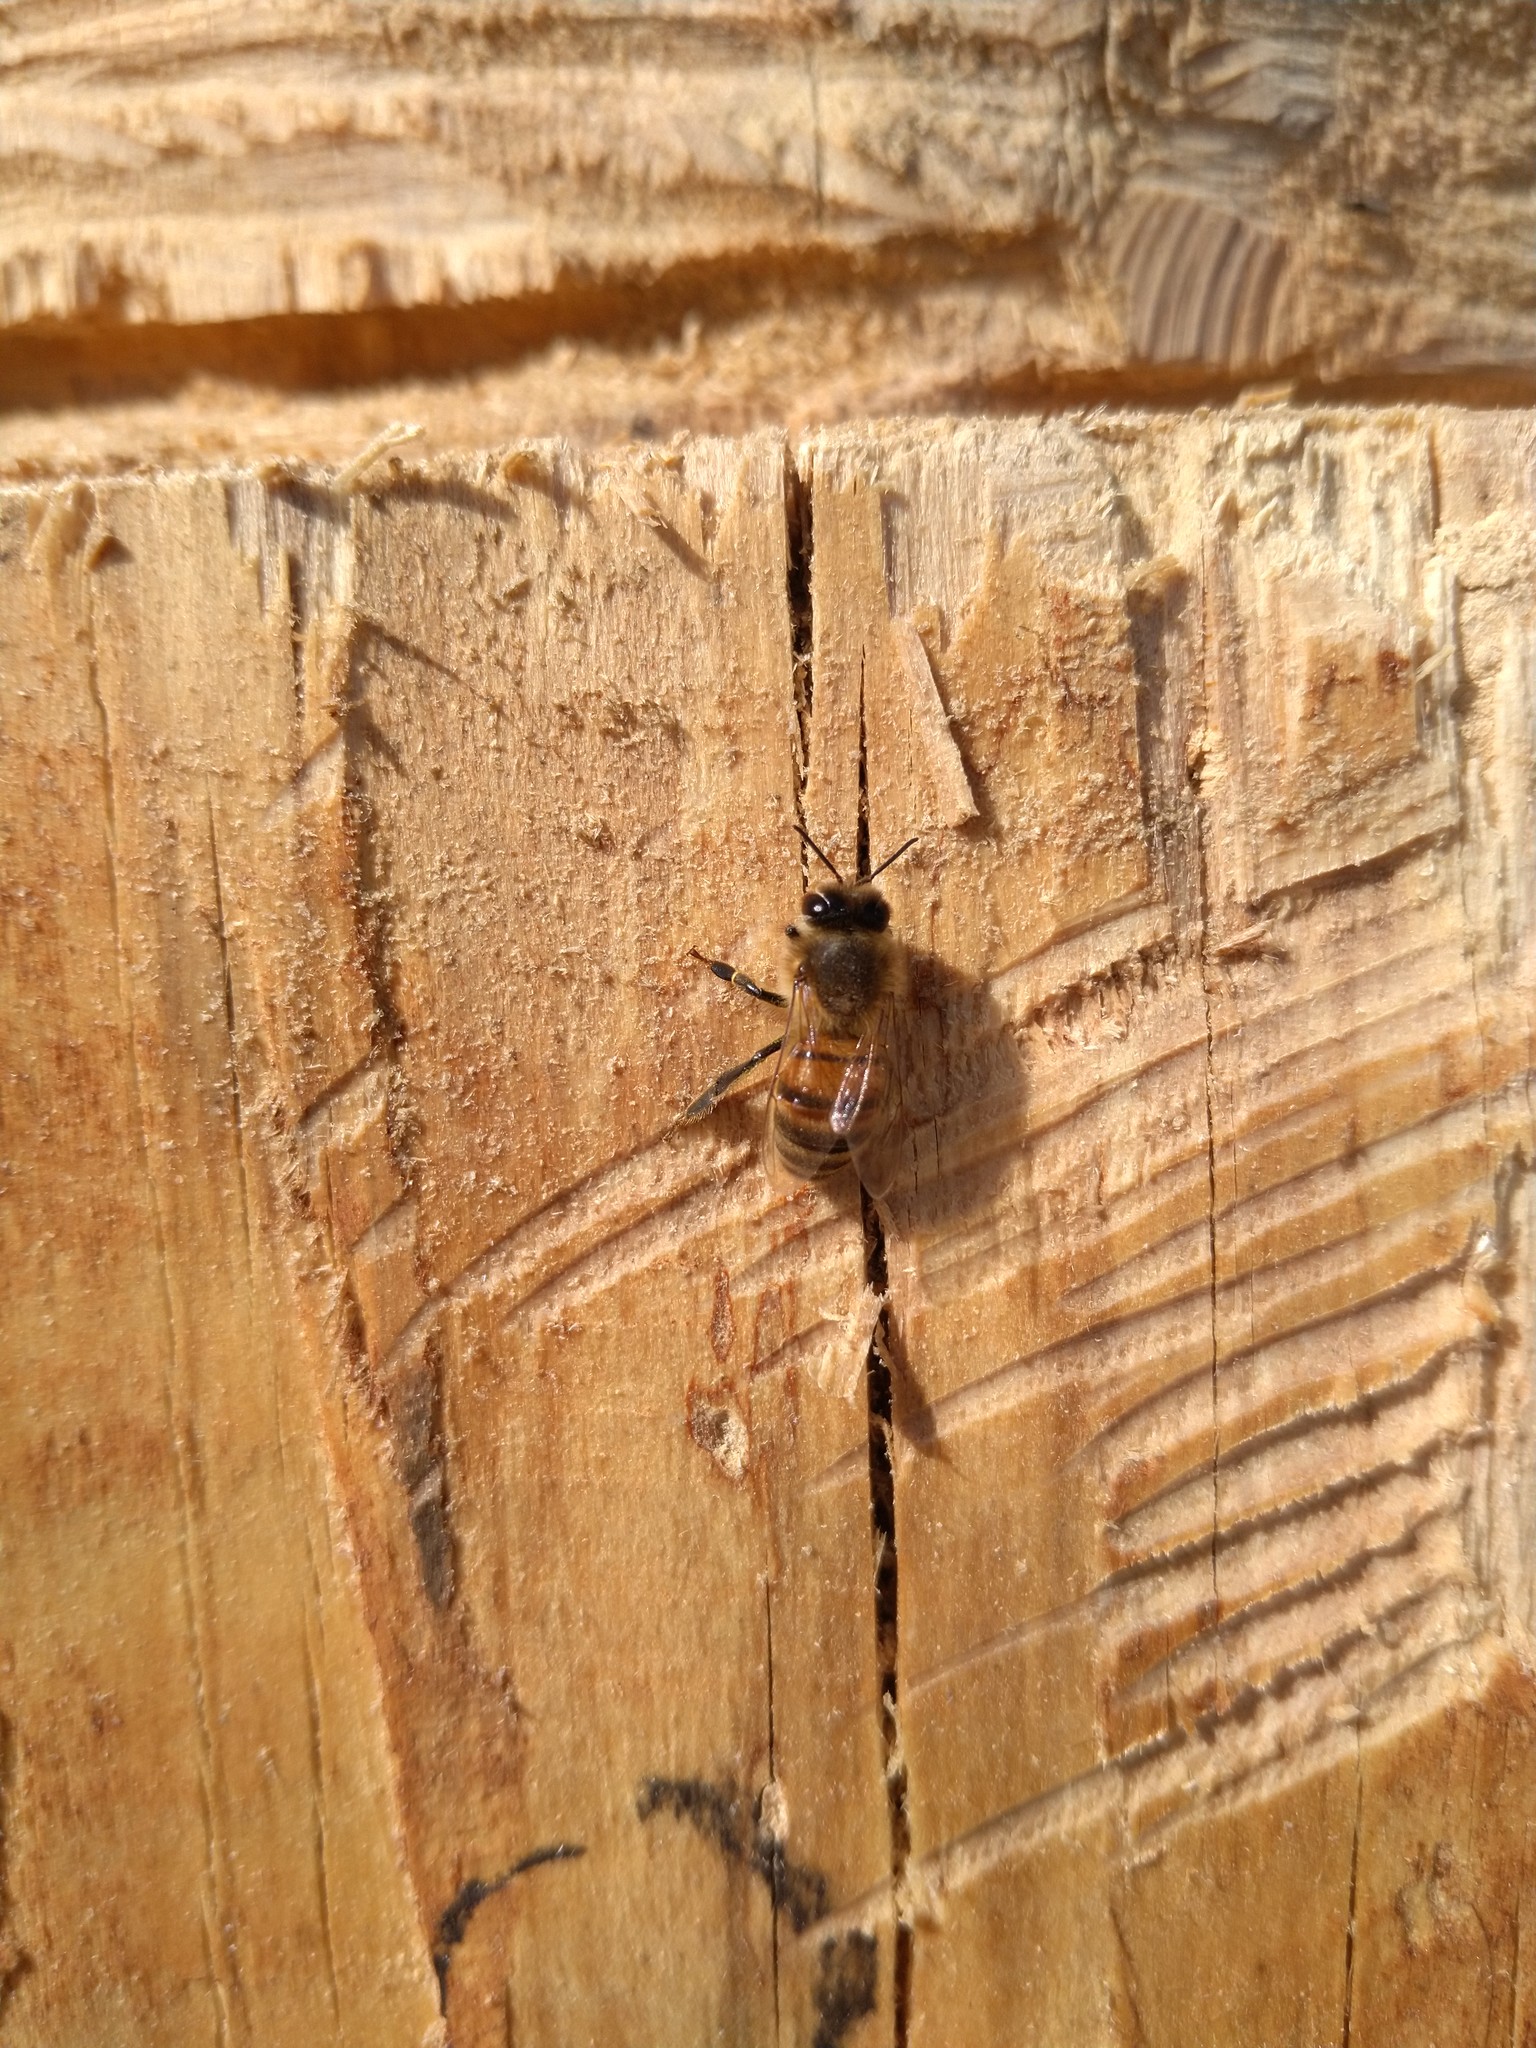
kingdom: Animalia
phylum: Arthropoda
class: Insecta
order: Hymenoptera
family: Apidae
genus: Apis
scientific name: Apis mellifera
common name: Honey bee
